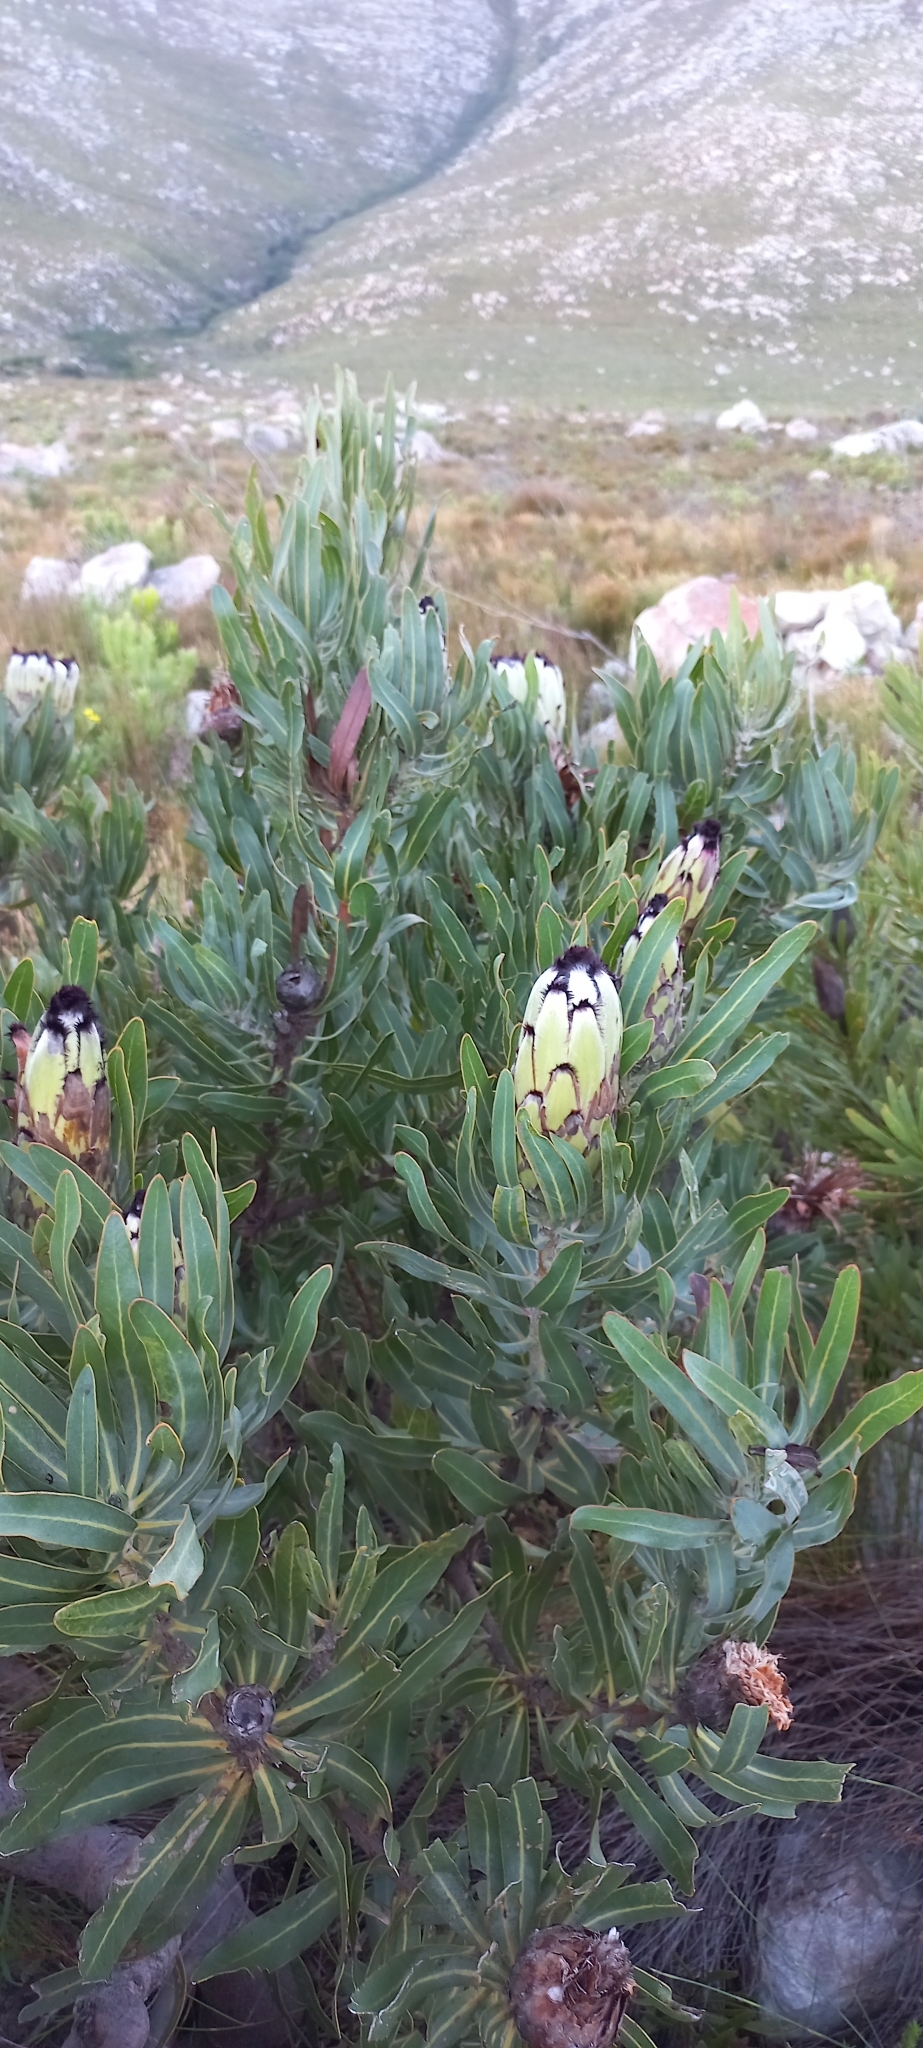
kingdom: Plantae
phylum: Tracheophyta
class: Magnoliopsida
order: Proteales
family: Proteaceae
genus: Protea
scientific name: Protea laurifolia
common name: Grey-leaf sugarbsh
